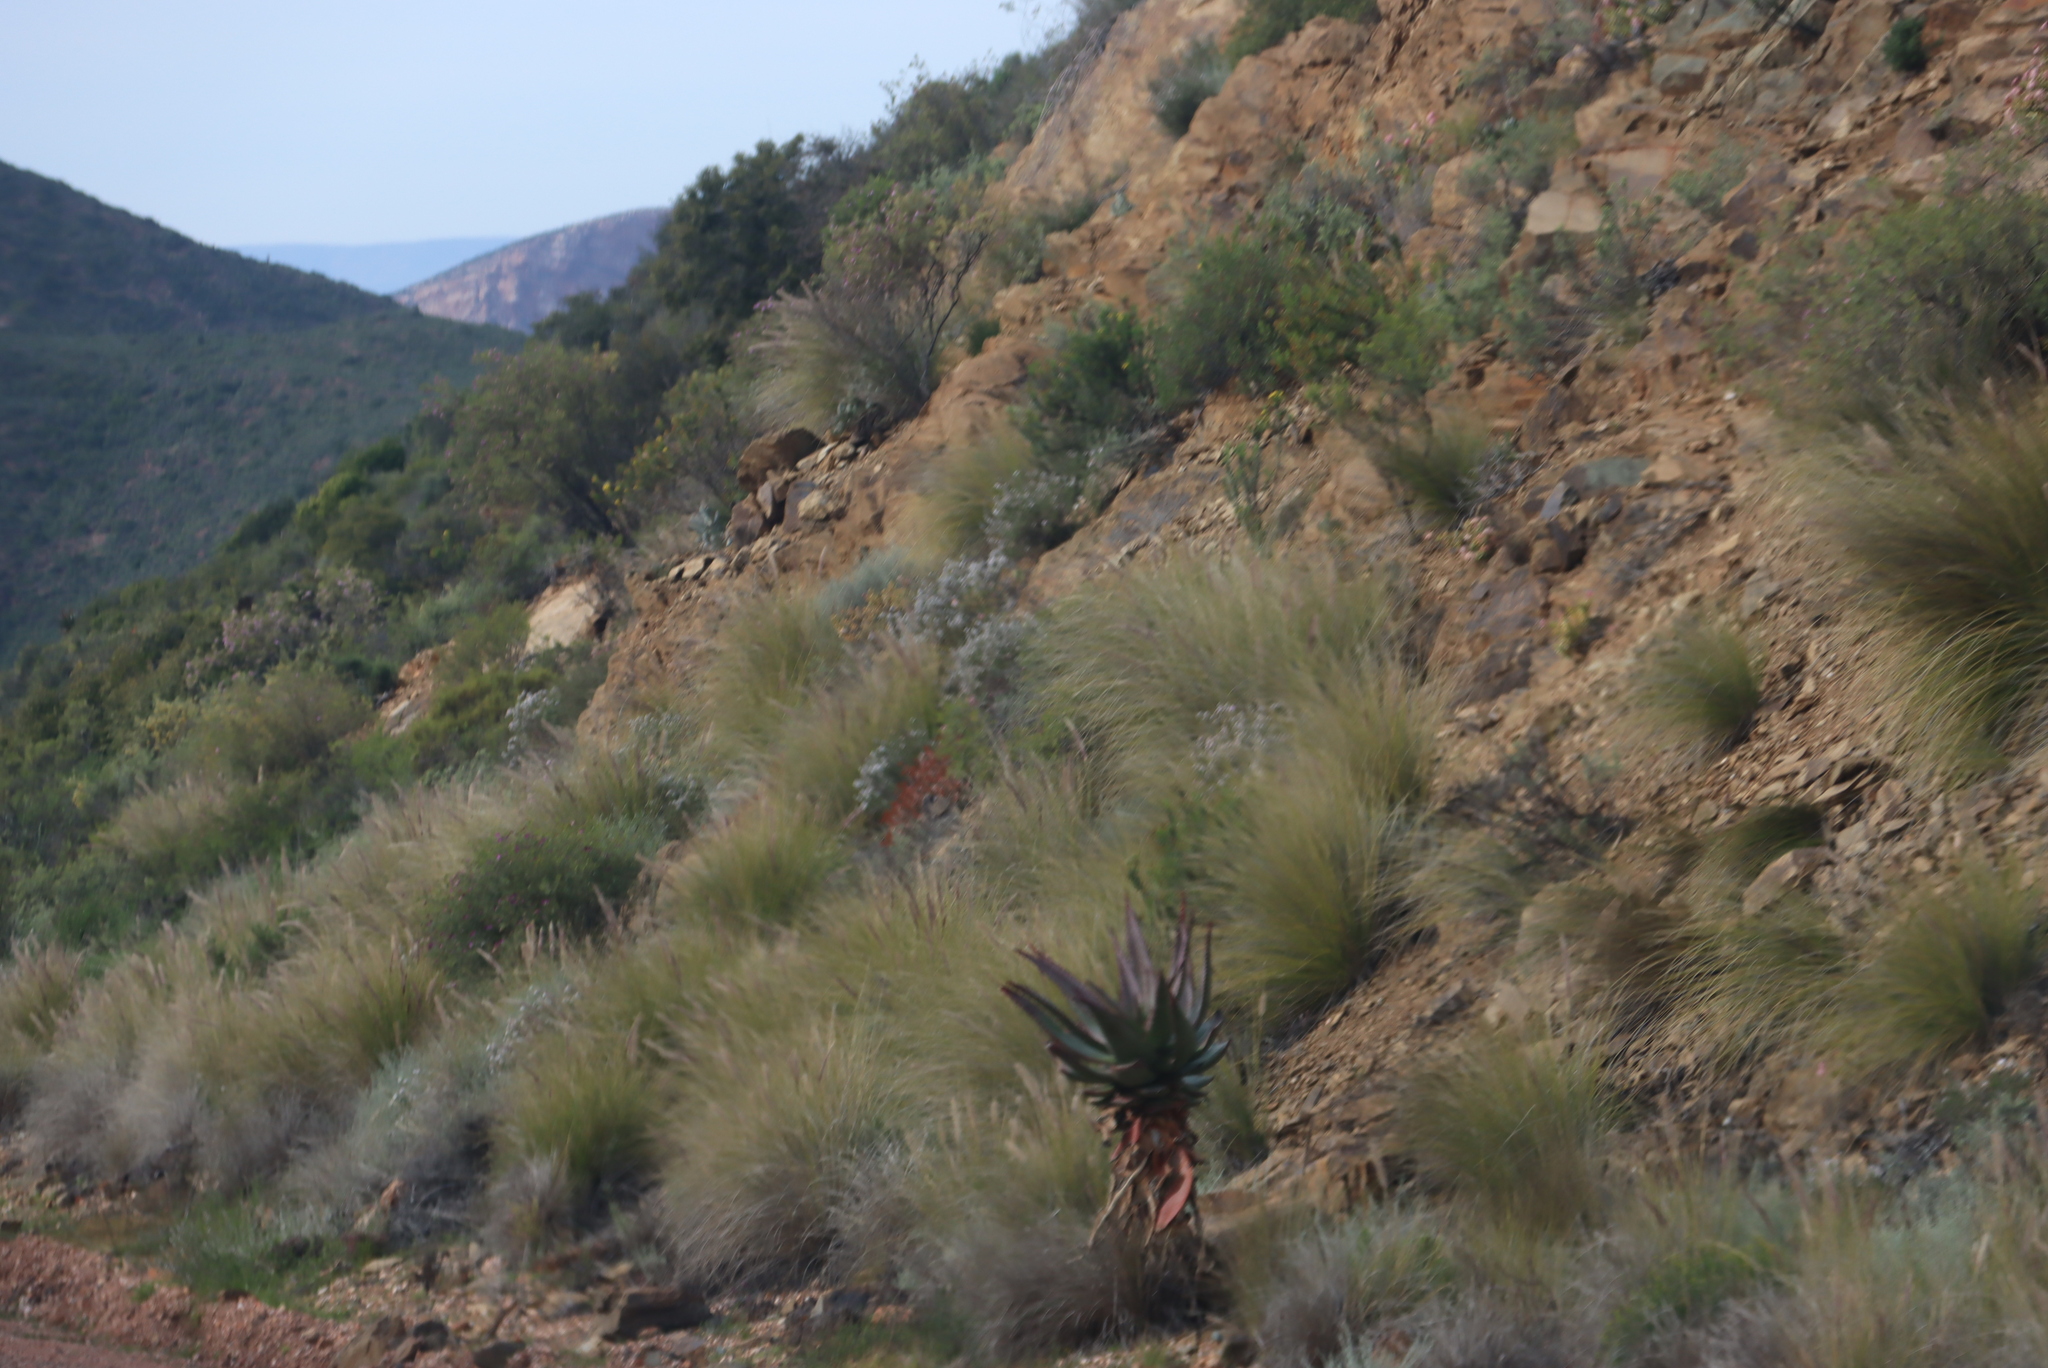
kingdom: Plantae
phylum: Tracheophyta
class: Liliopsida
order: Poales
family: Poaceae
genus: Cenchrus
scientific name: Cenchrus setaceus
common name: Crimson fountaingrass
